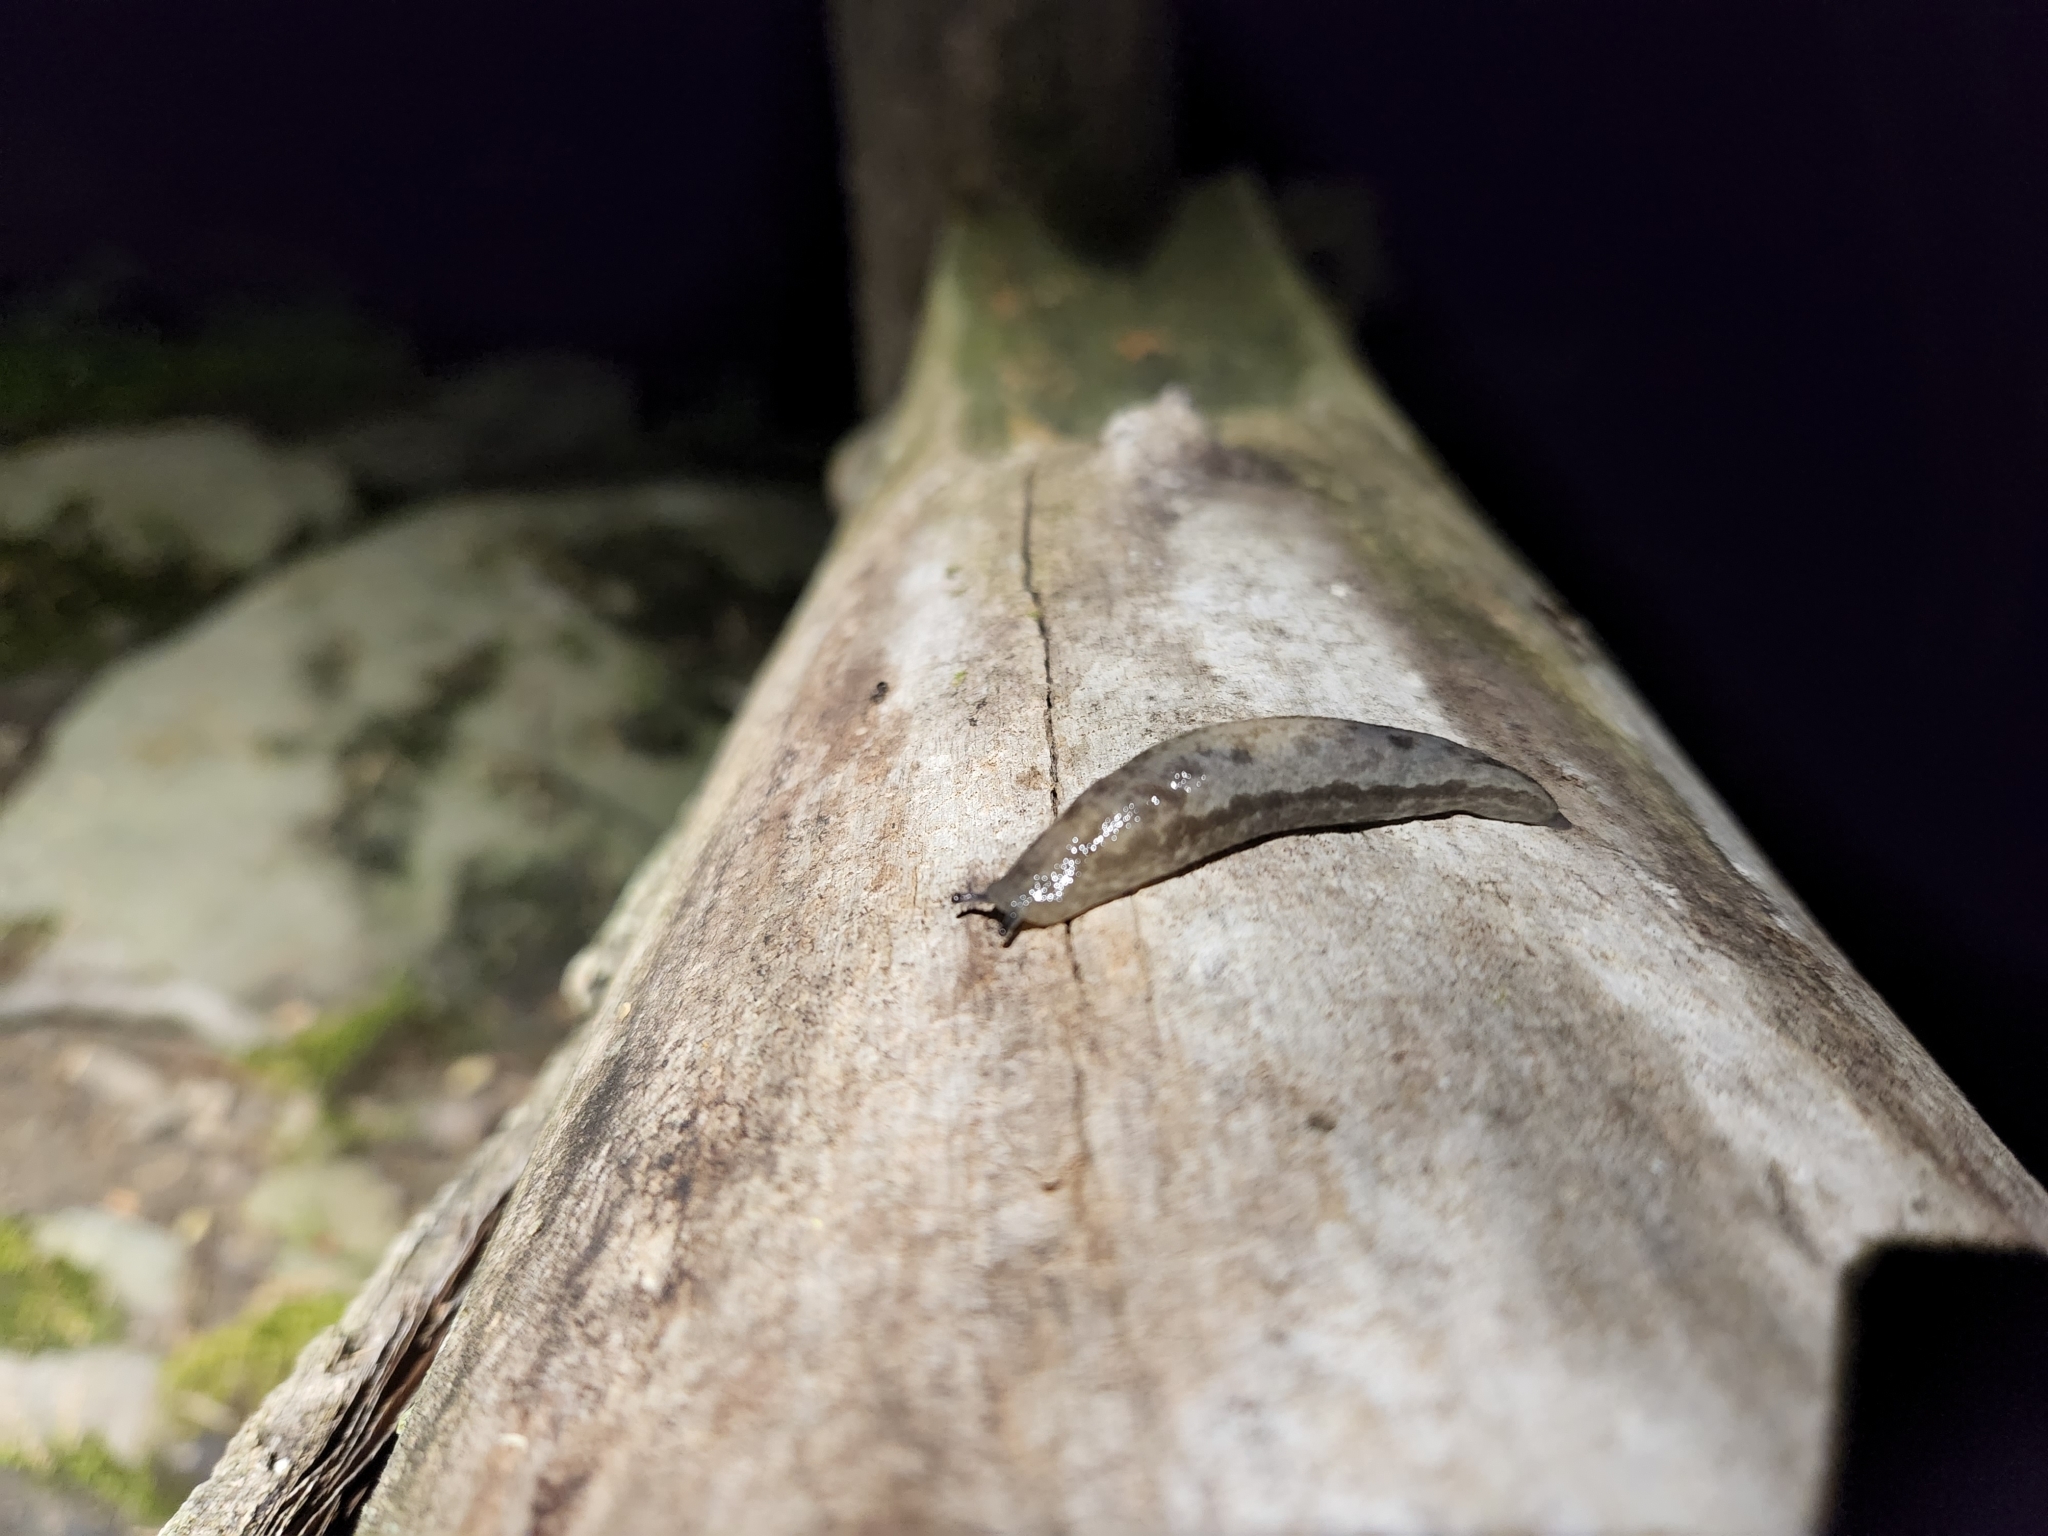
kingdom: Animalia
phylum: Mollusca
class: Gastropoda
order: Stylommatophora
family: Philomycidae
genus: Megapallifera
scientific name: Megapallifera mutabilis
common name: Changeable mantleslug
